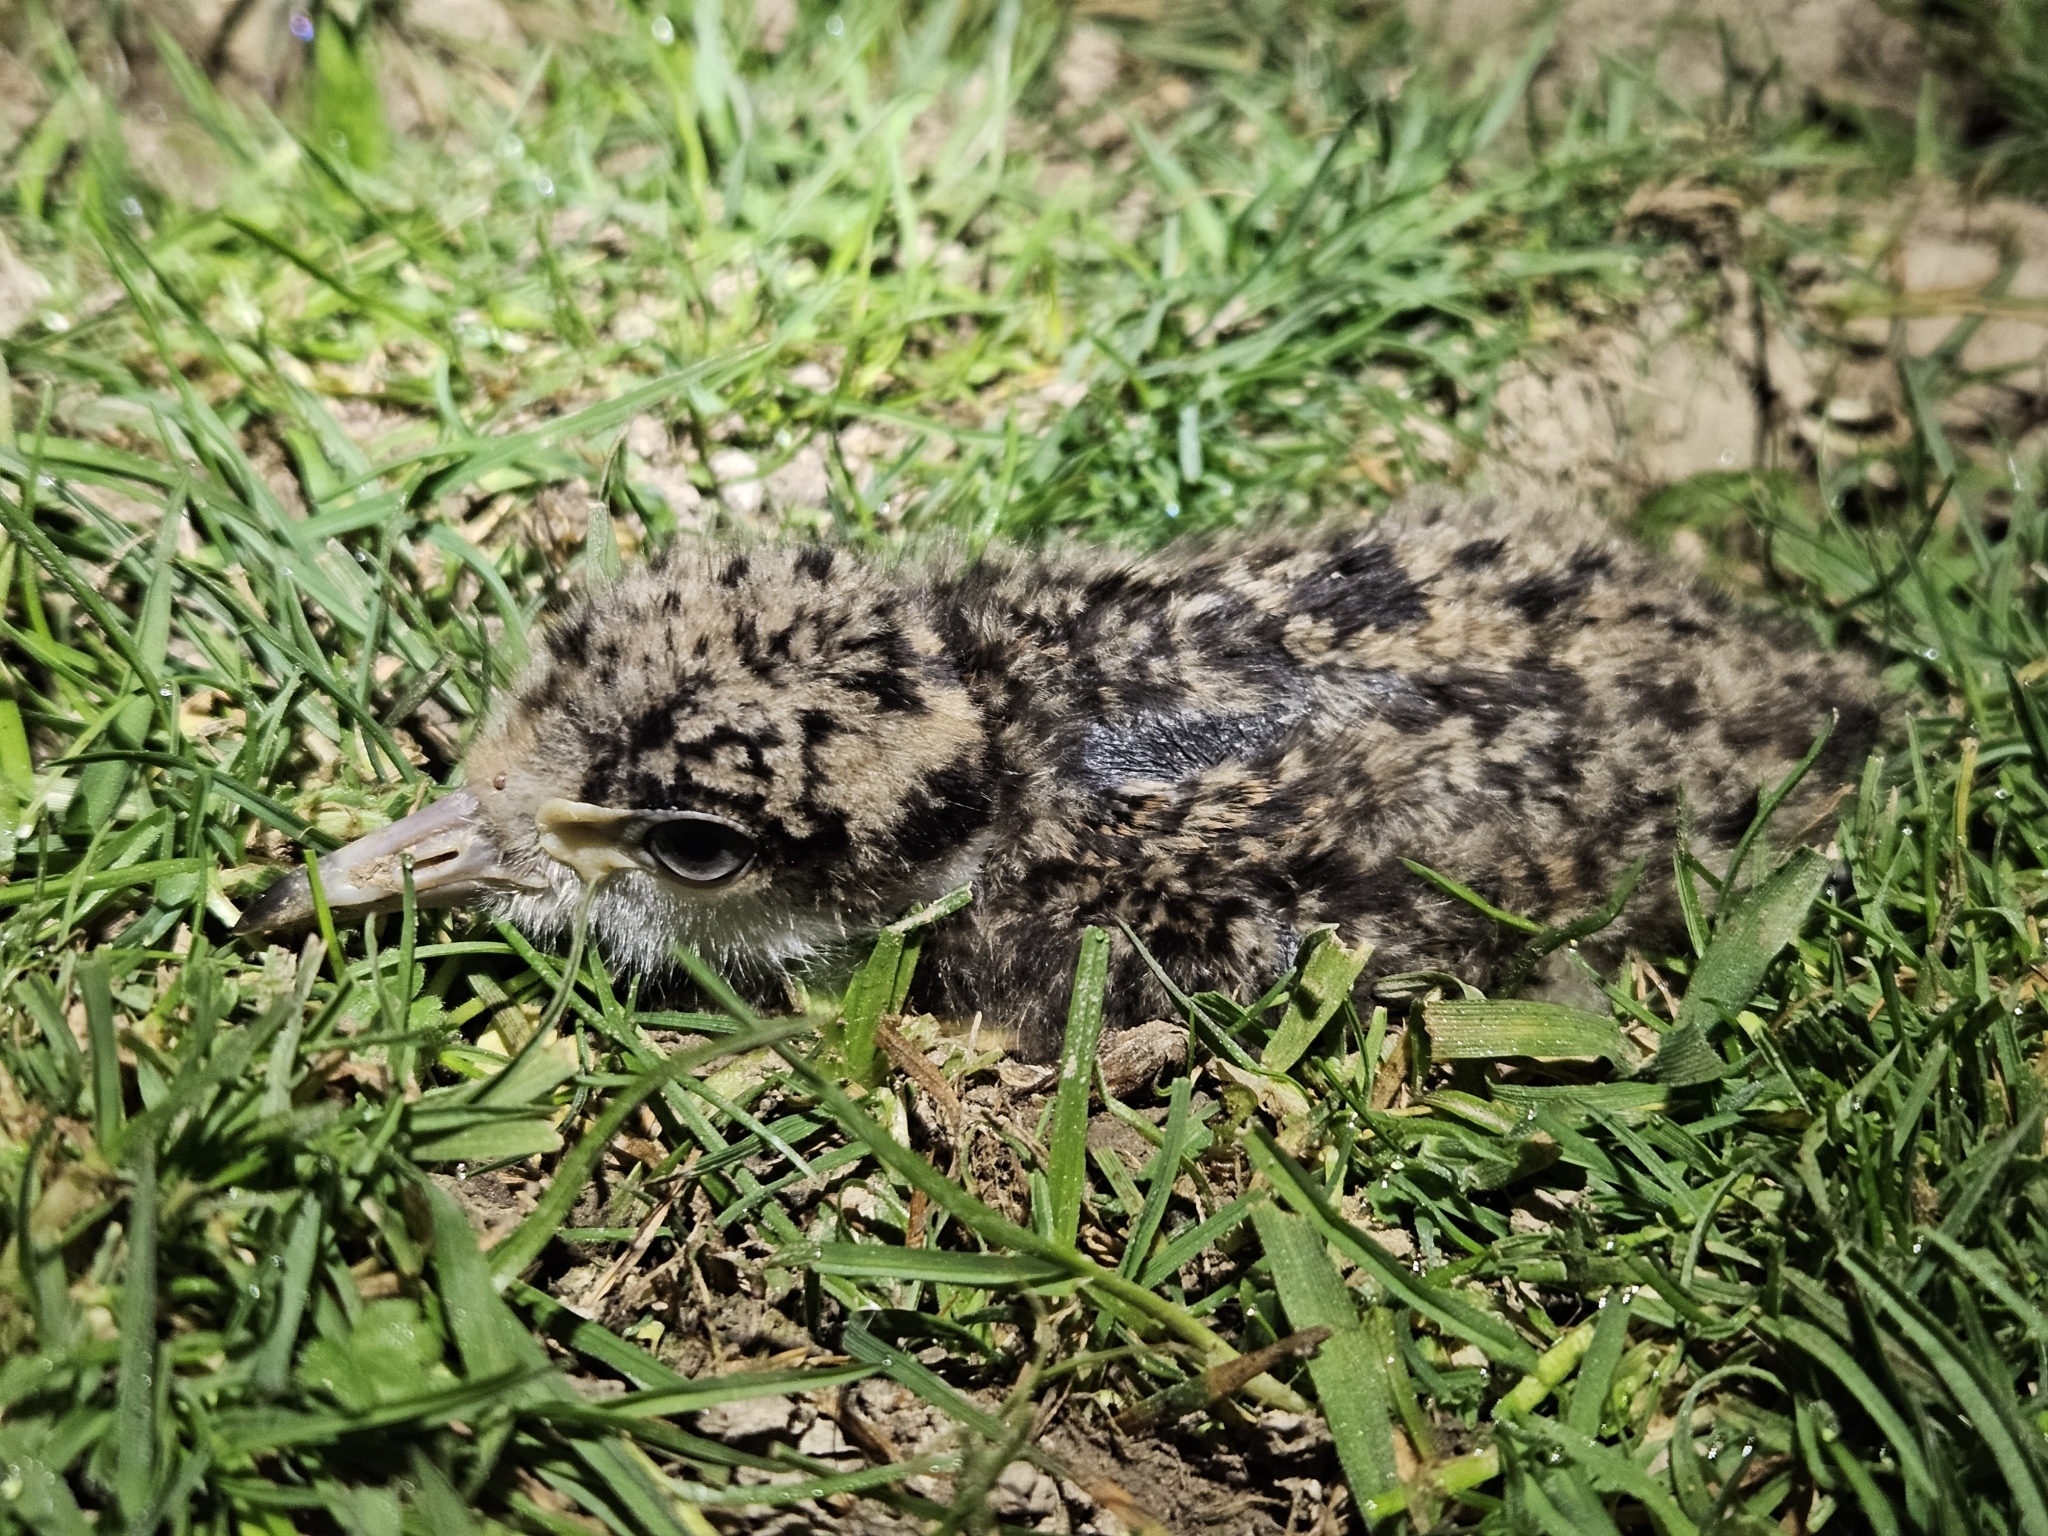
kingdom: Animalia
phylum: Chordata
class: Aves
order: Charadriiformes
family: Charadriidae
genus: Vanellus
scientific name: Vanellus miles
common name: Masked lapwing
